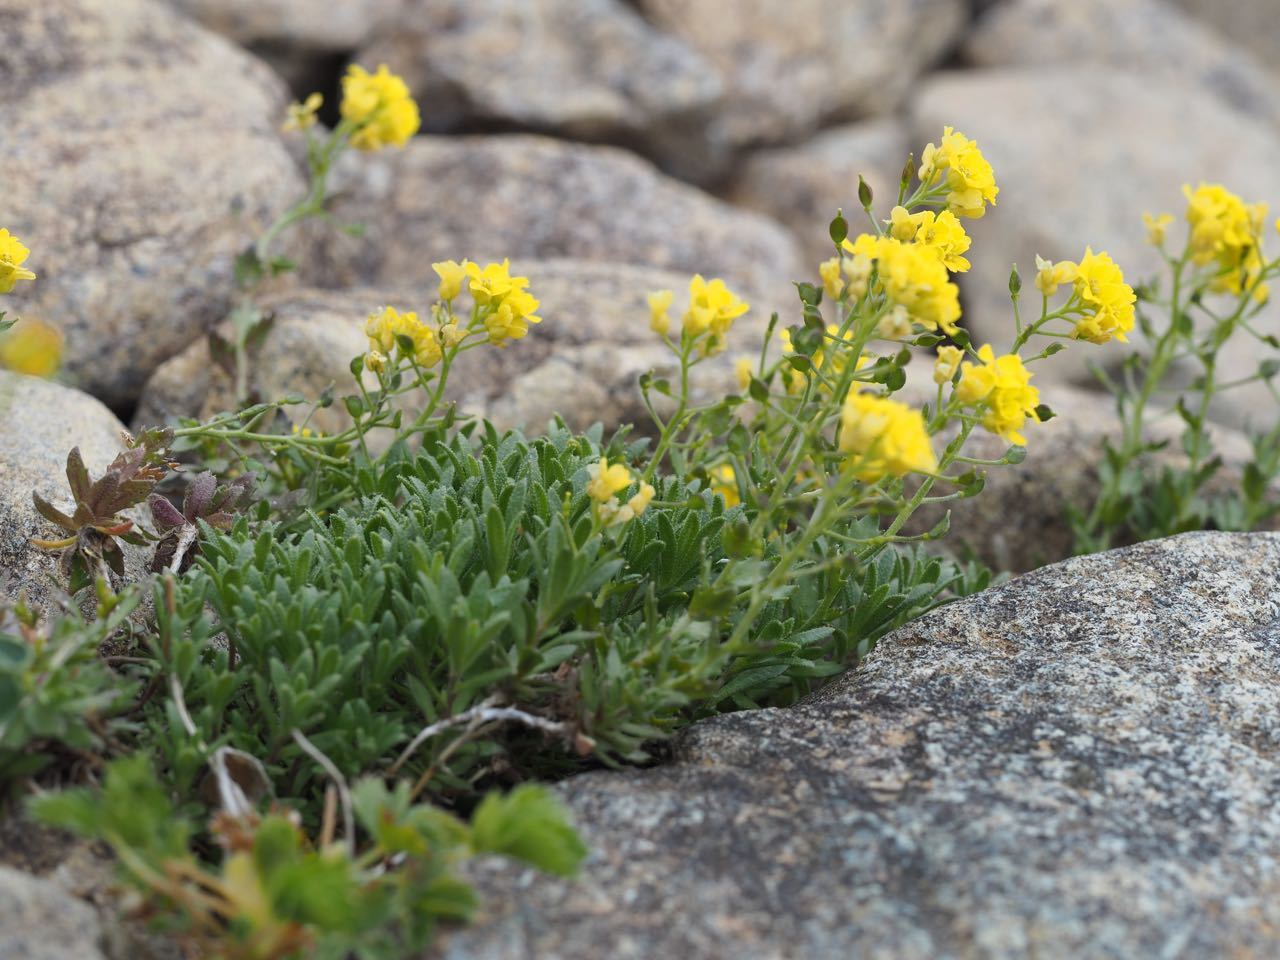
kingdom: Plantae
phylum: Tracheophyta
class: Magnoliopsida
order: Brassicales
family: Brassicaceae
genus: Draba
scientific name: Draba japonica
